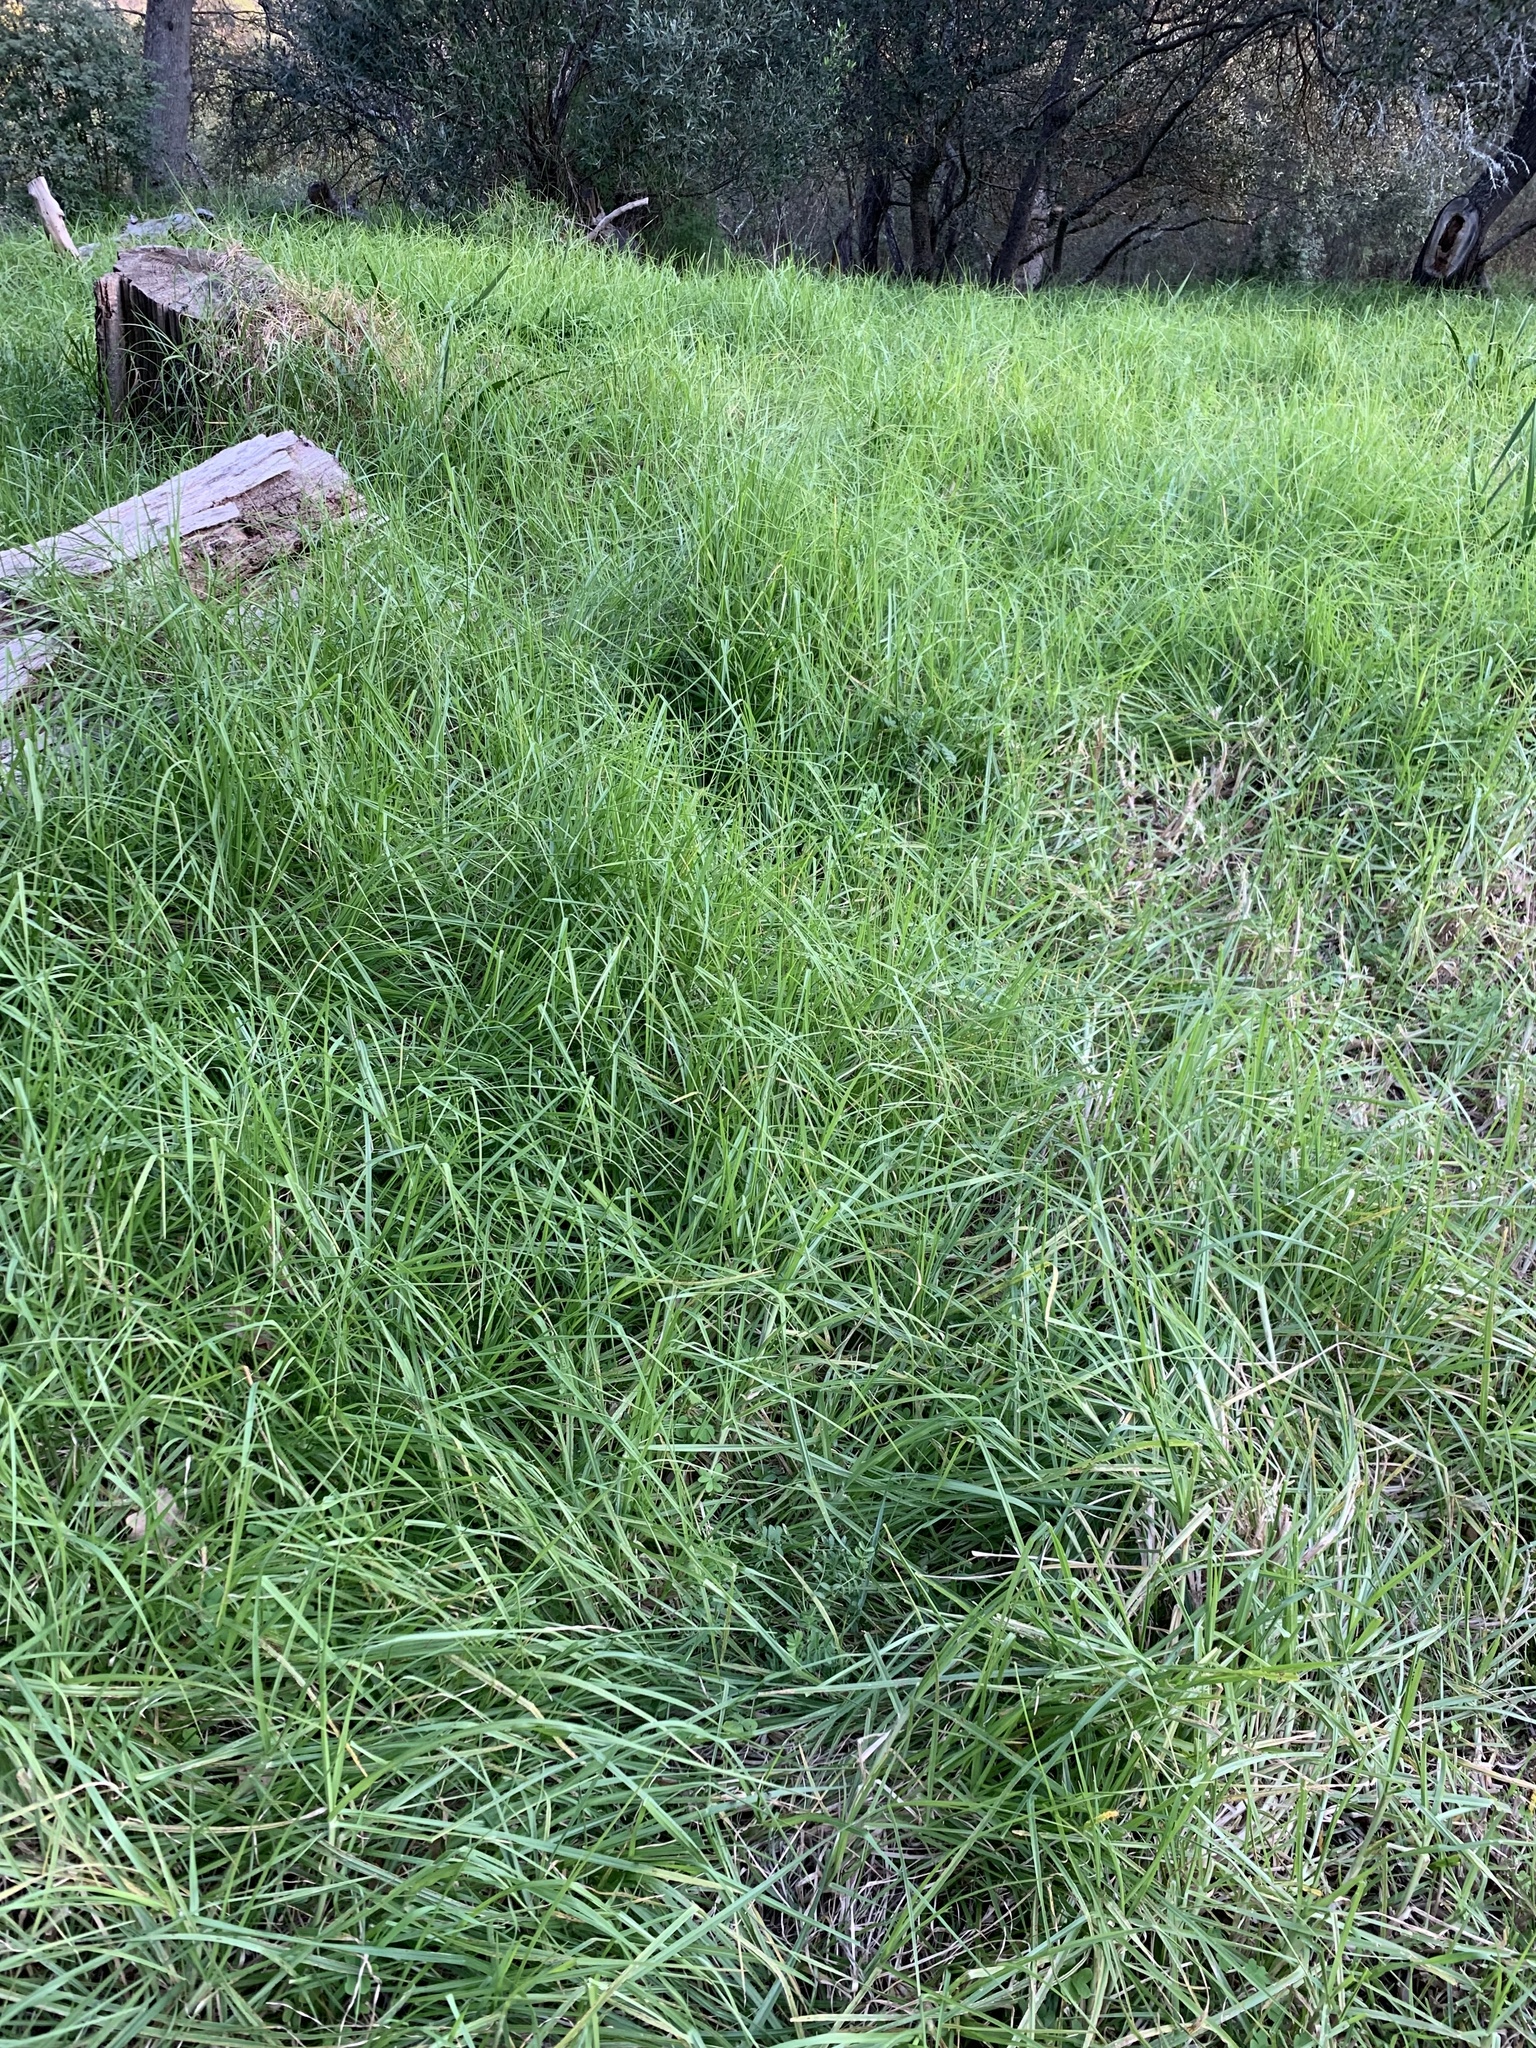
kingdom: Plantae
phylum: Tracheophyta
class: Liliopsida
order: Poales
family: Poaceae
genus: Cenchrus
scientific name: Cenchrus clandestinus
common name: Kikuyugrass
